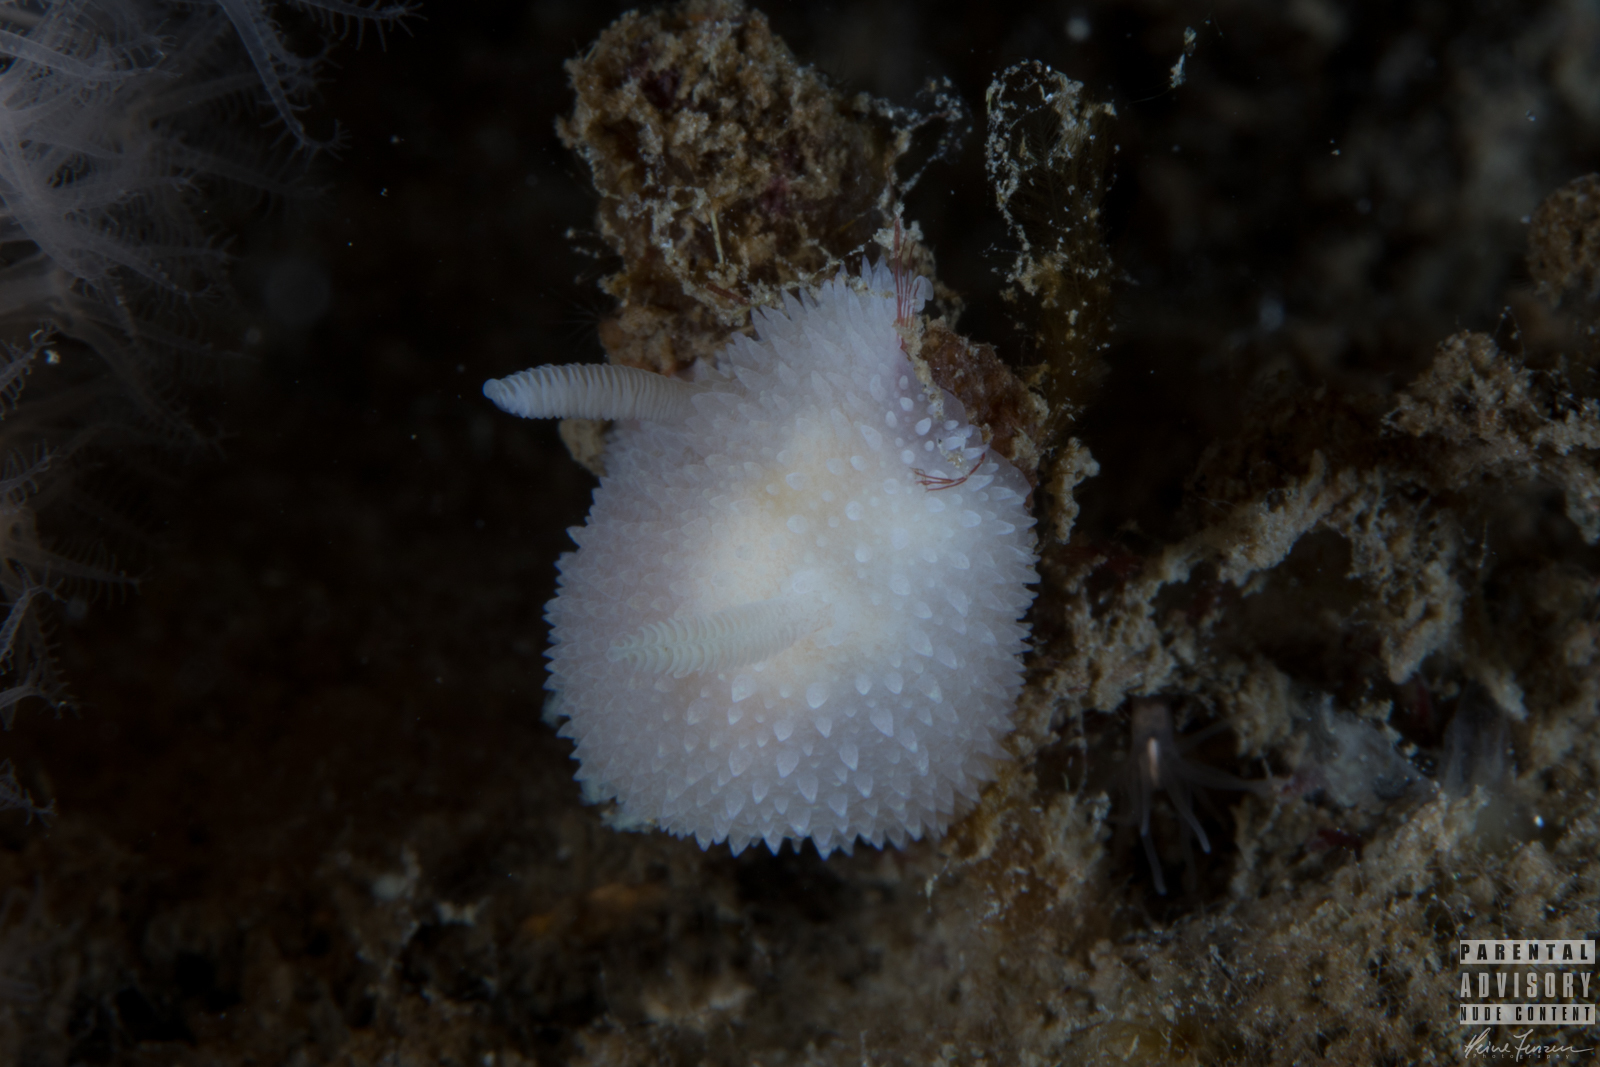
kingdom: Animalia
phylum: Mollusca
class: Gastropoda
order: Nudibranchia
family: Onchidorididae
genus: Acanthodoris
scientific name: Acanthodoris pilosa
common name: Hairy spiny doris
